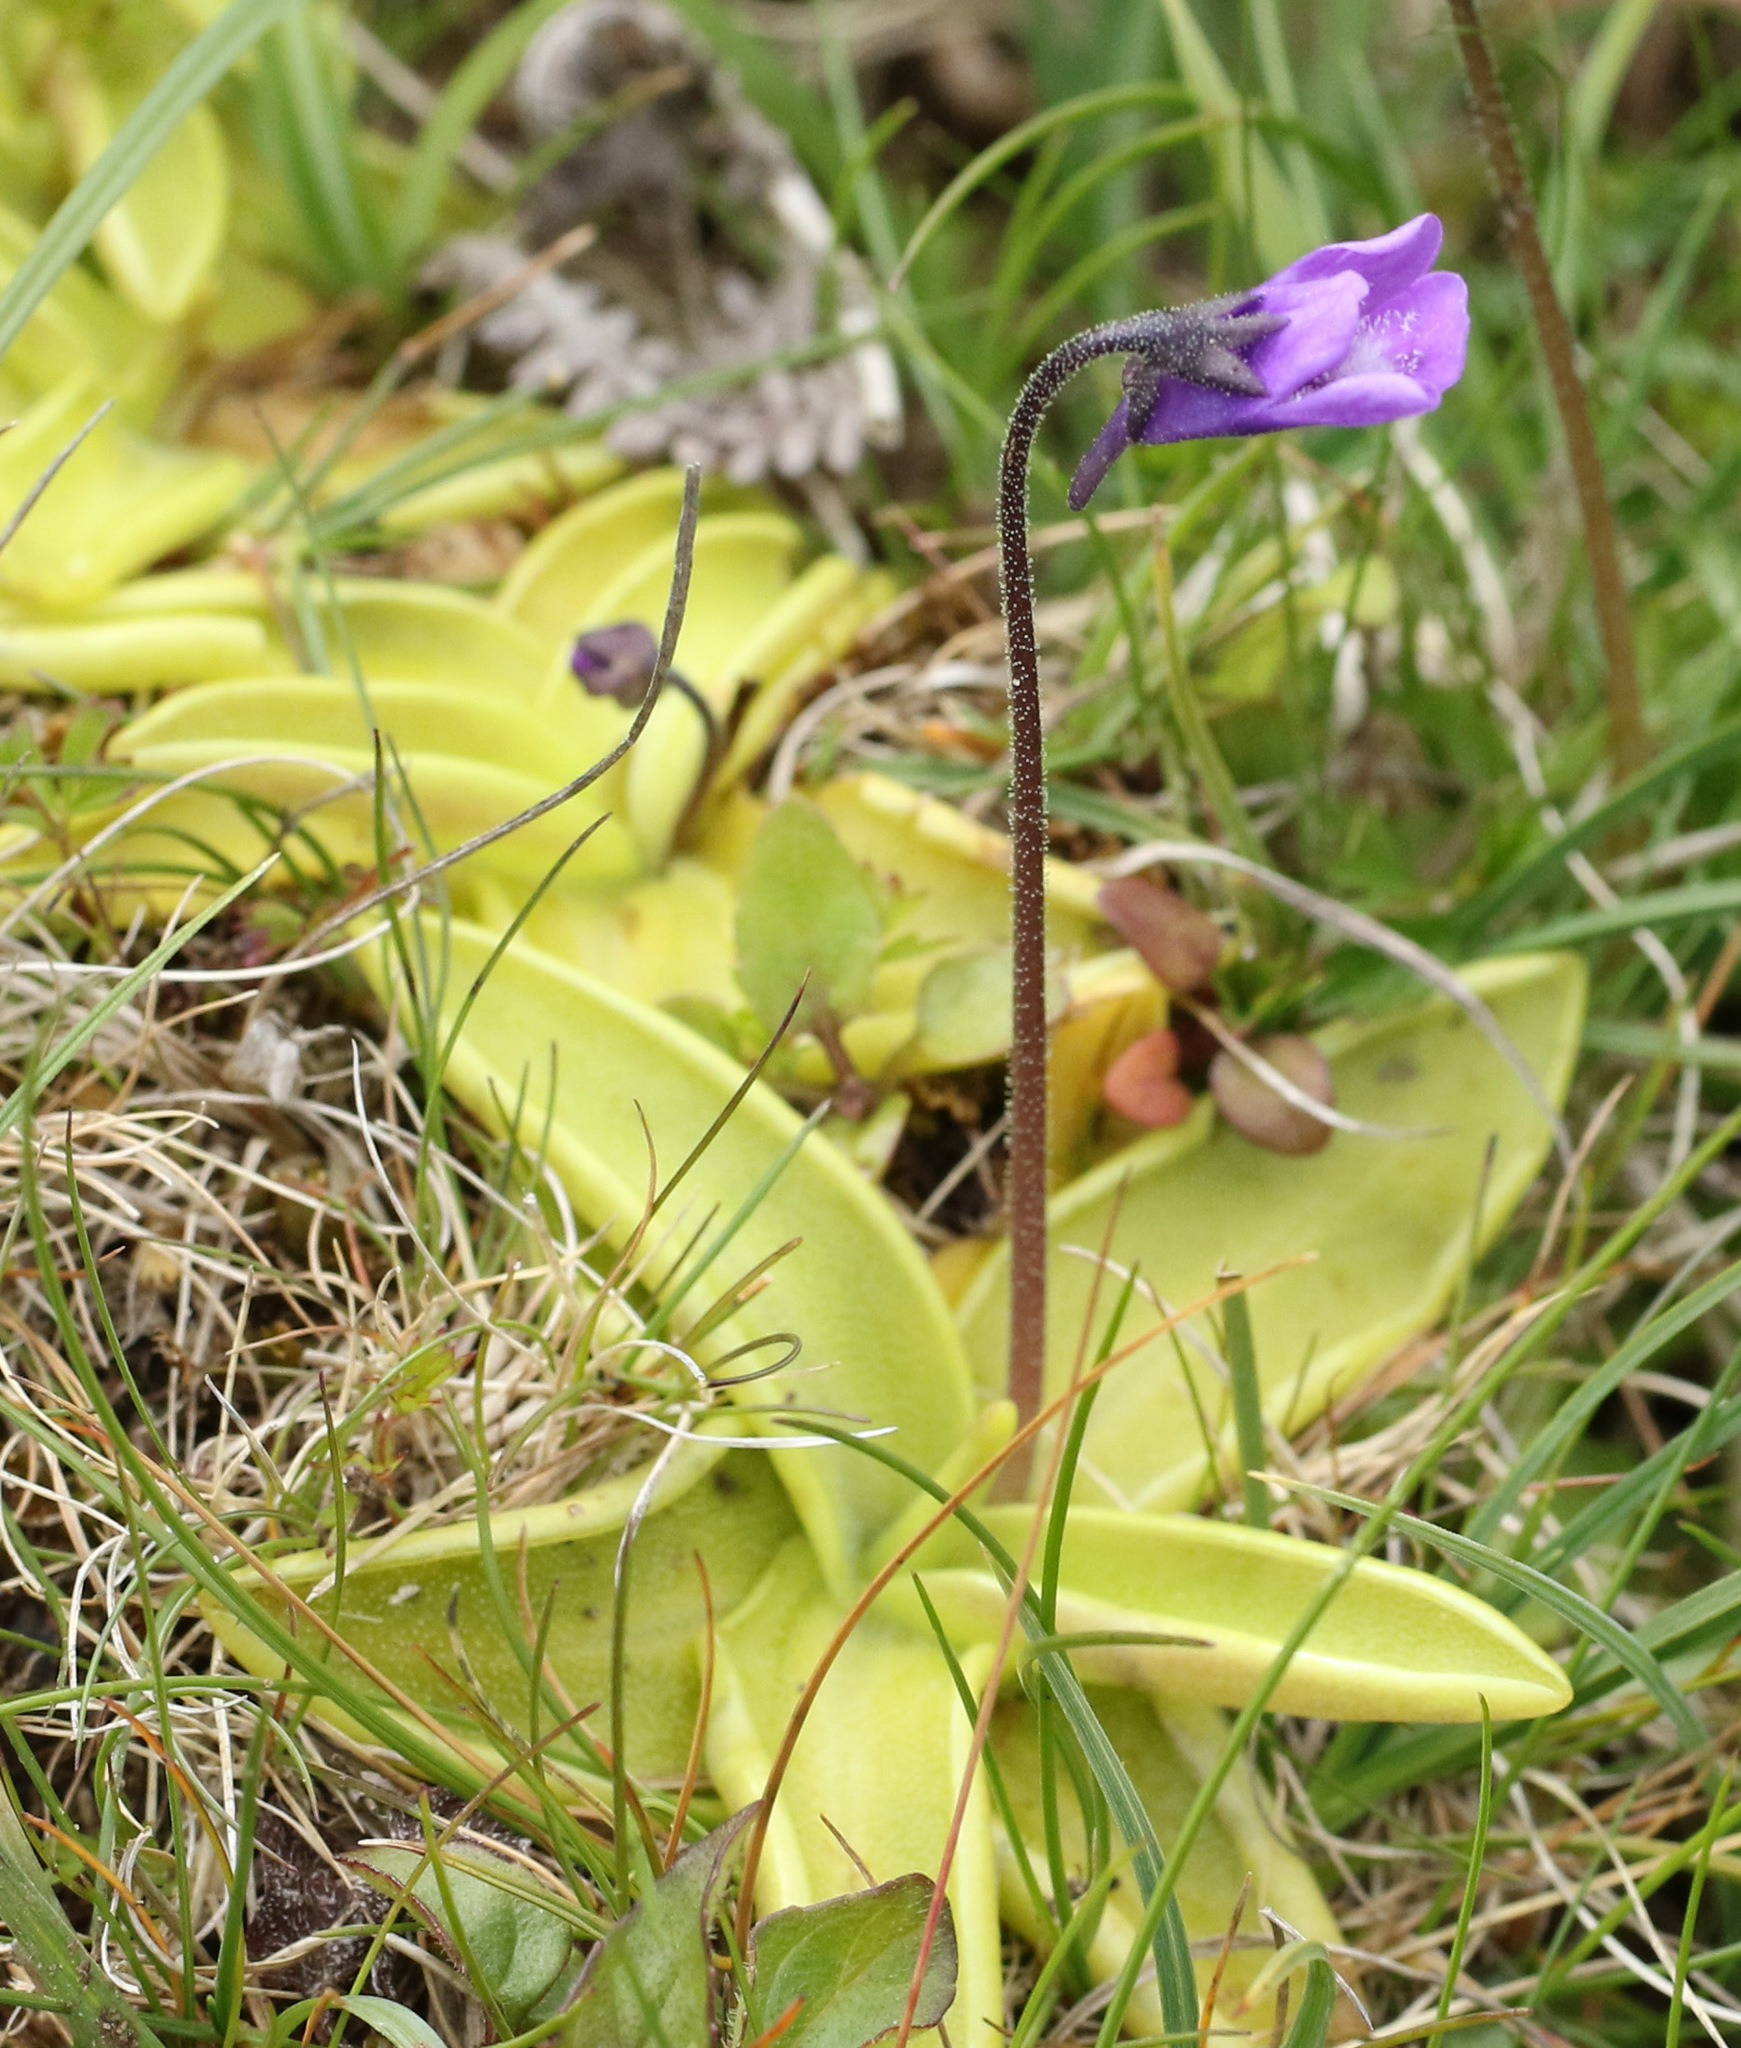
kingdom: Plantae
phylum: Tracheophyta
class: Magnoliopsida
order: Lamiales
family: Lentibulariaceae
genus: Pinguicula
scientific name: Pinguicula vulgaris
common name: Common butterwort
